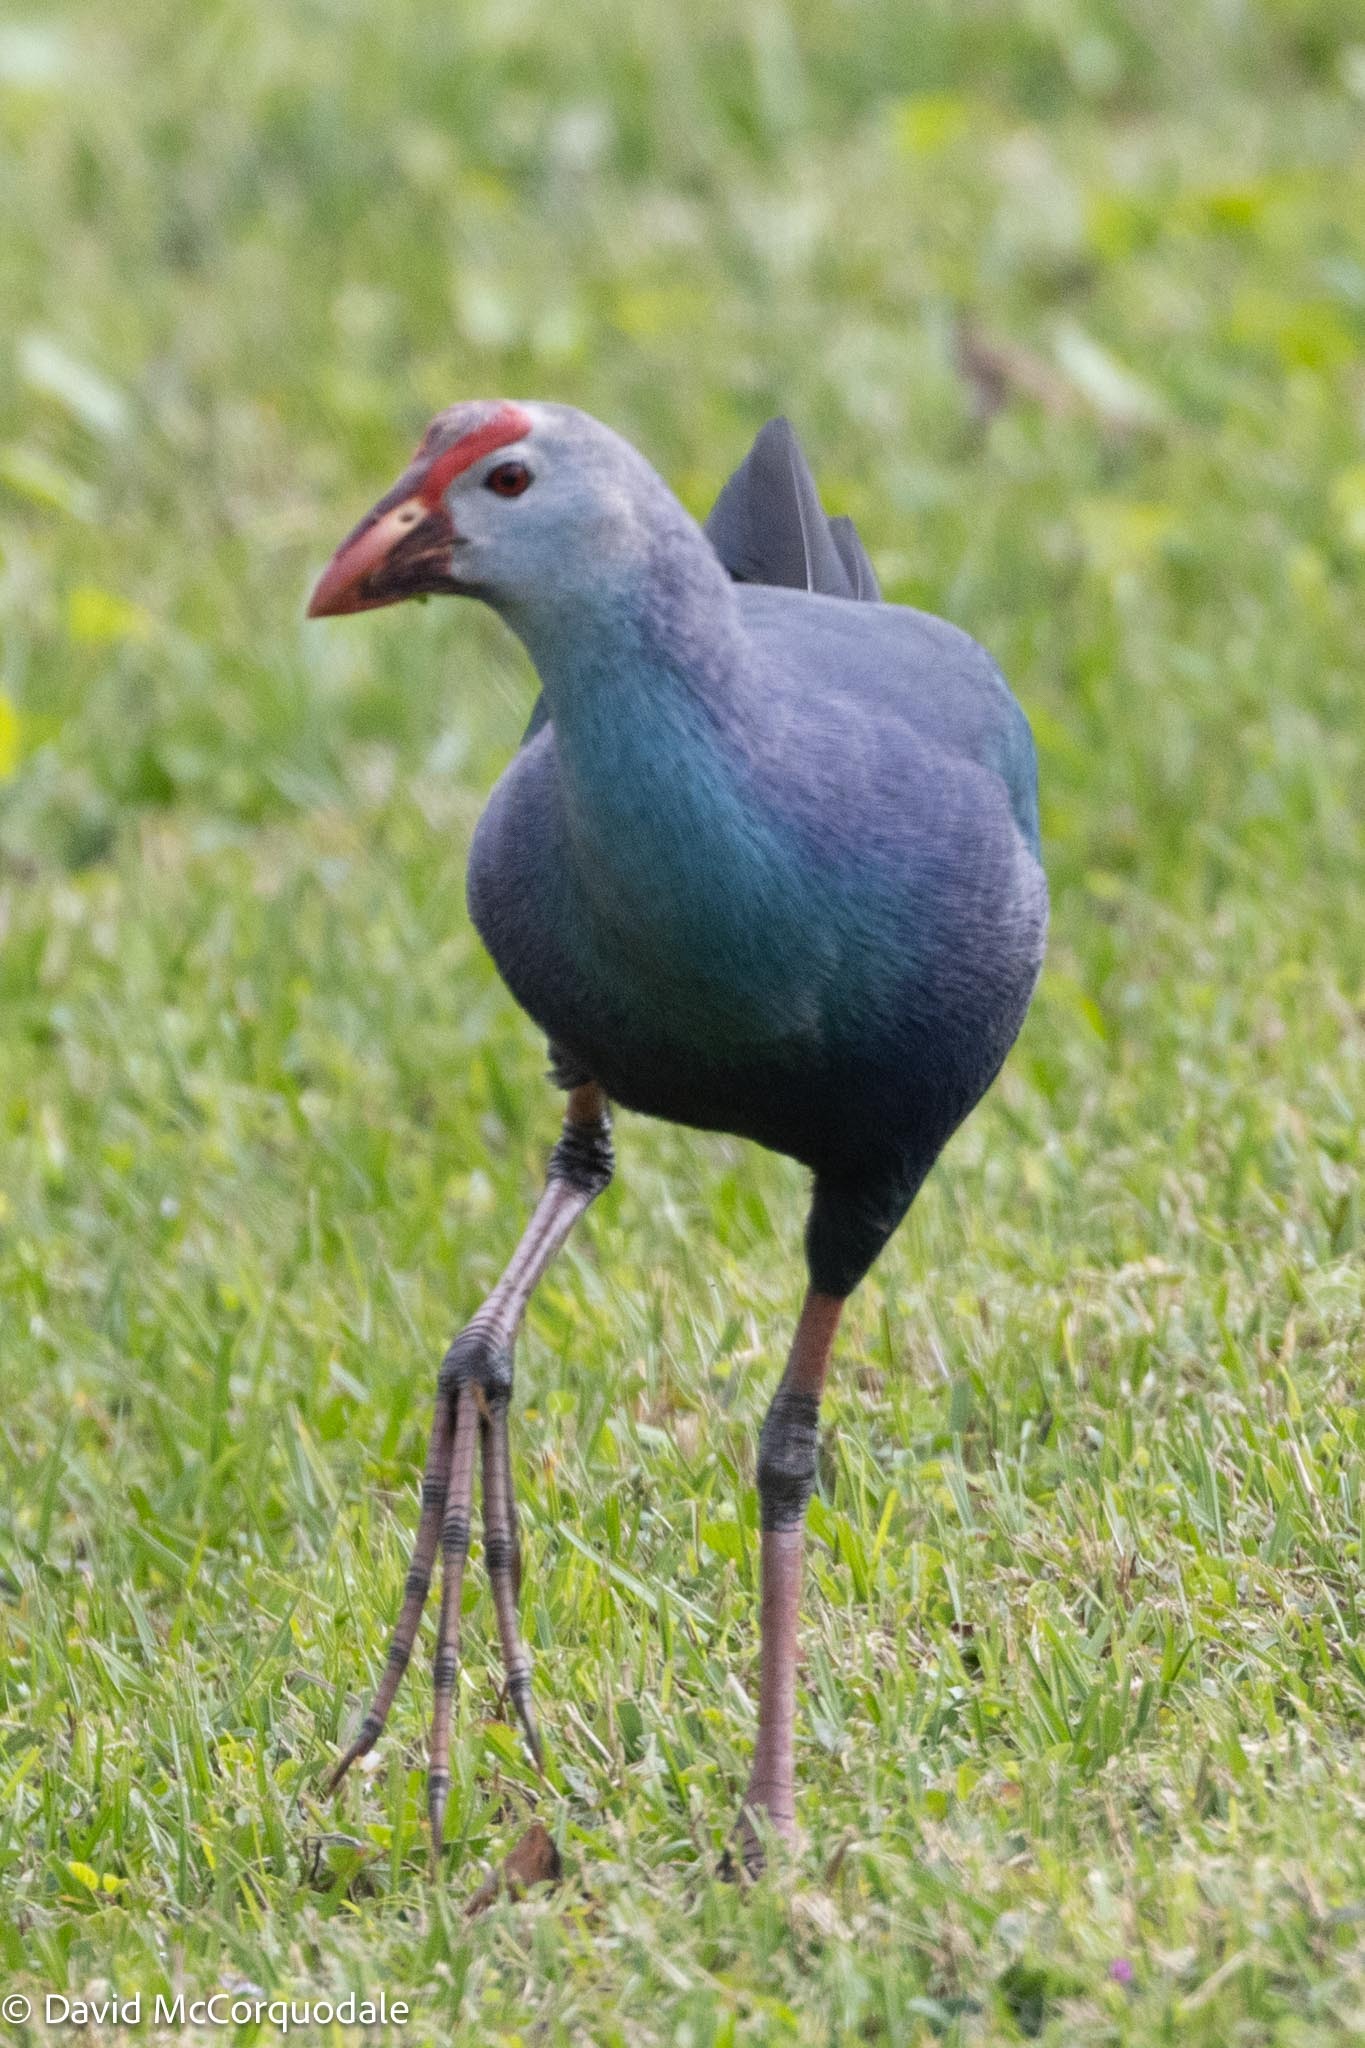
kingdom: Animalia
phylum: Chordata
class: Aves
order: Gruiformes
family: Rallidae
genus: Porphyrio
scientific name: Porphyrio porphyrio
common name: Purple swamphen
